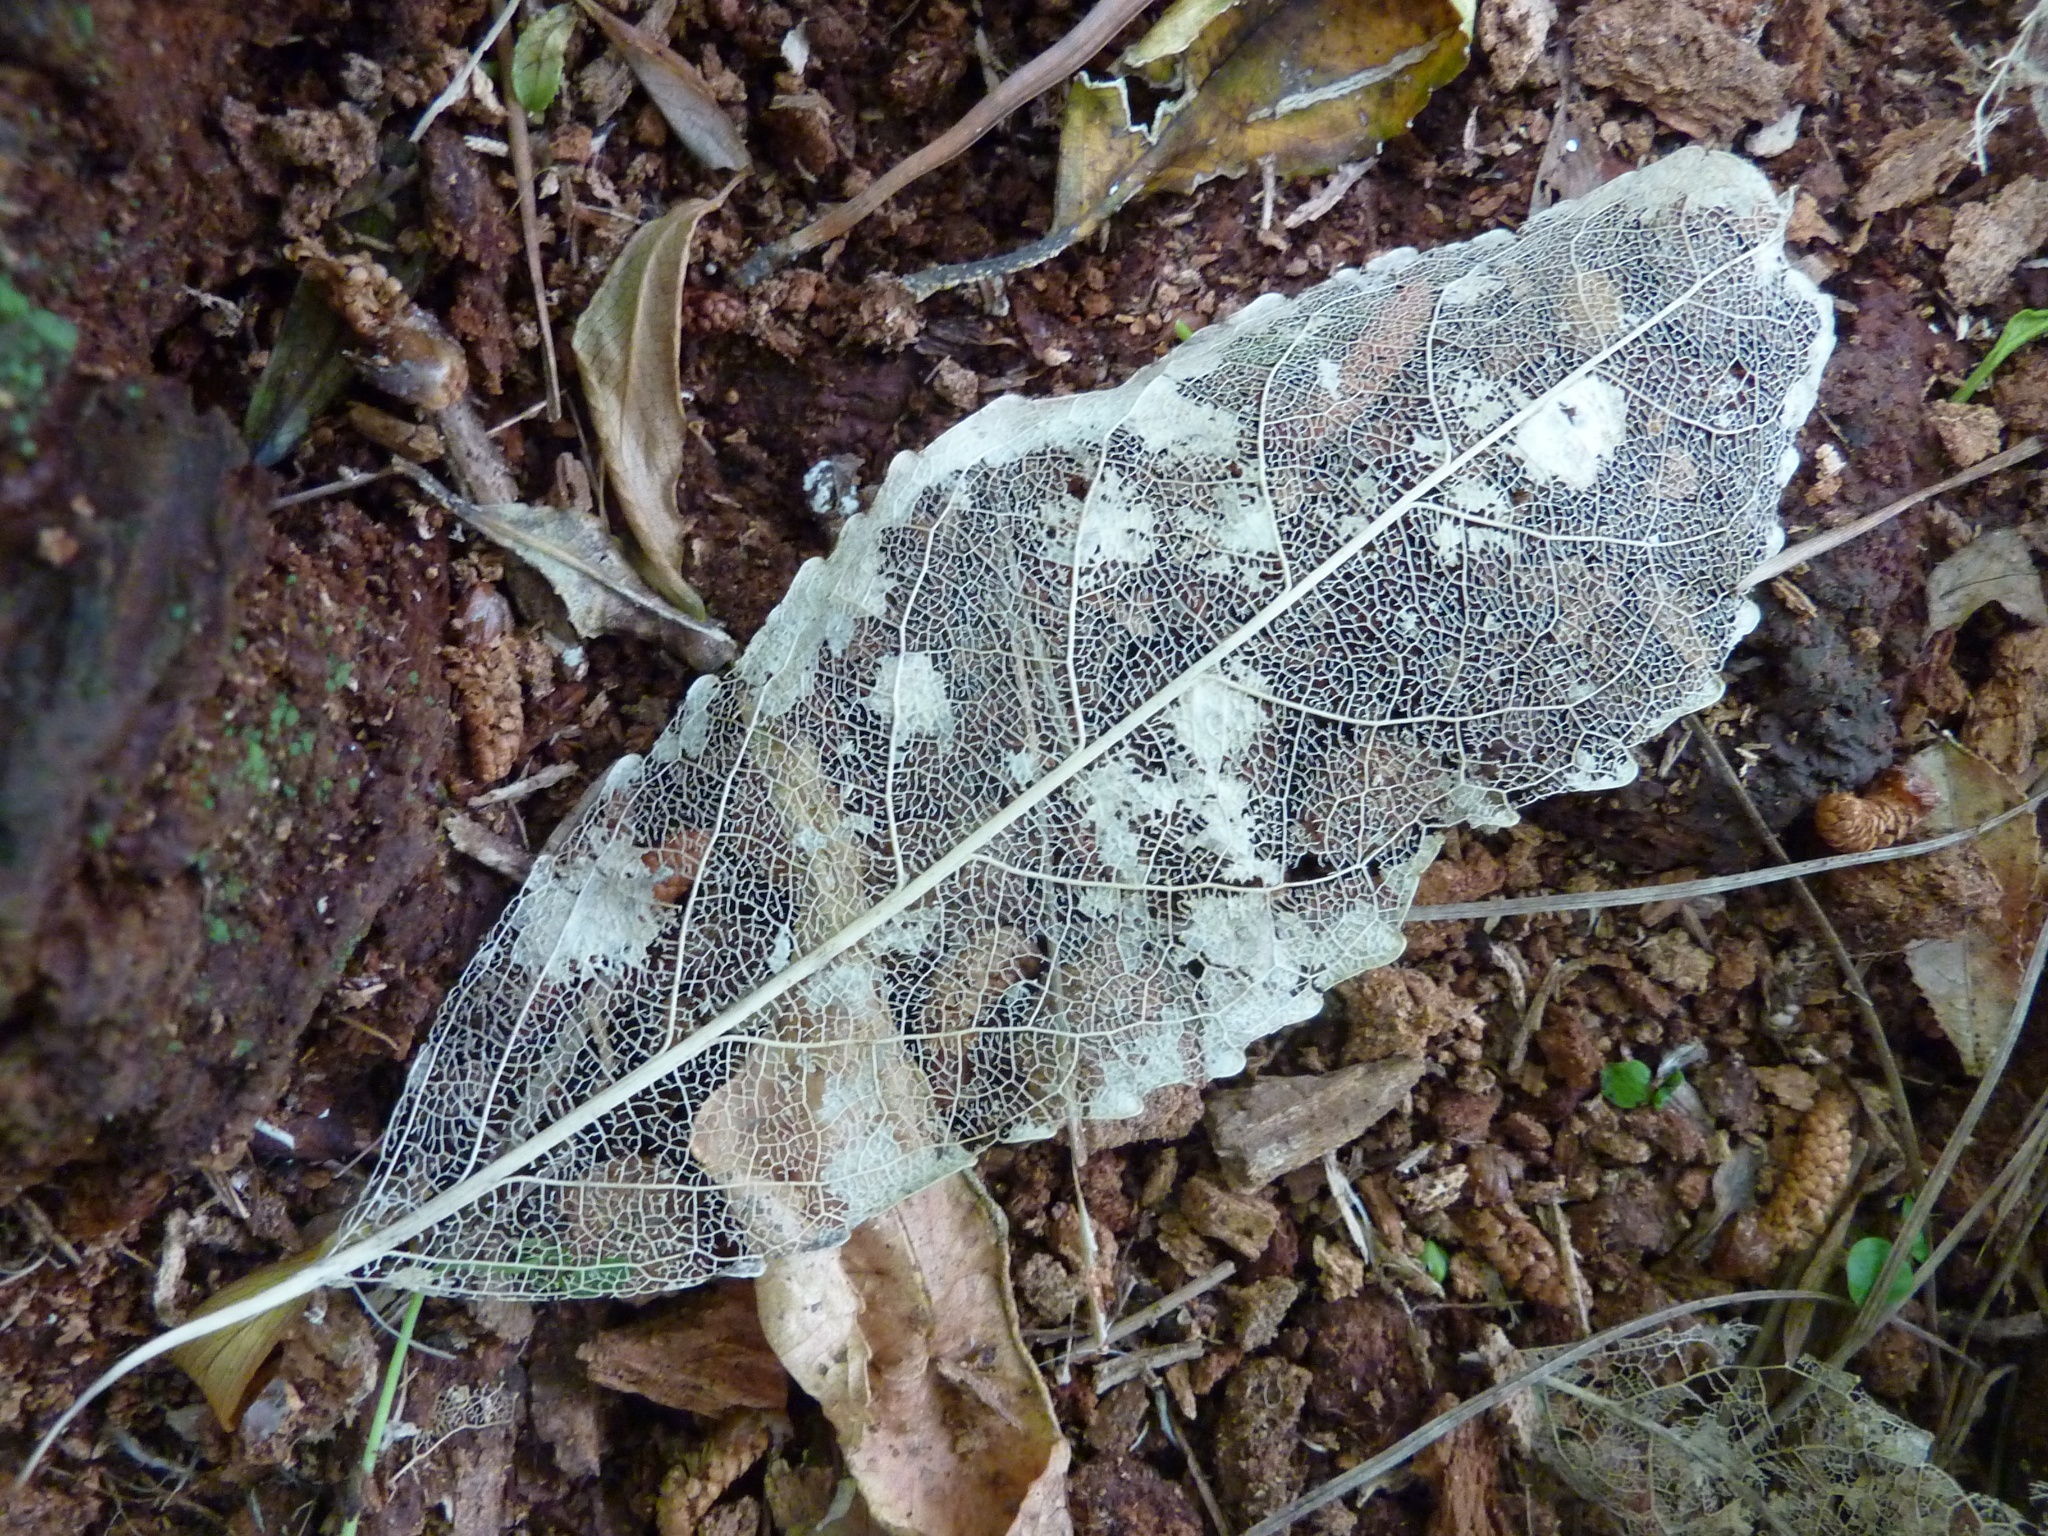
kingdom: Plantae
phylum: Tracheophyta
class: Magnoliopsida
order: Malpighiales
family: Violaceae
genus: Melicytus
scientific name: Melicytus ramiflorus
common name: Mahoe
